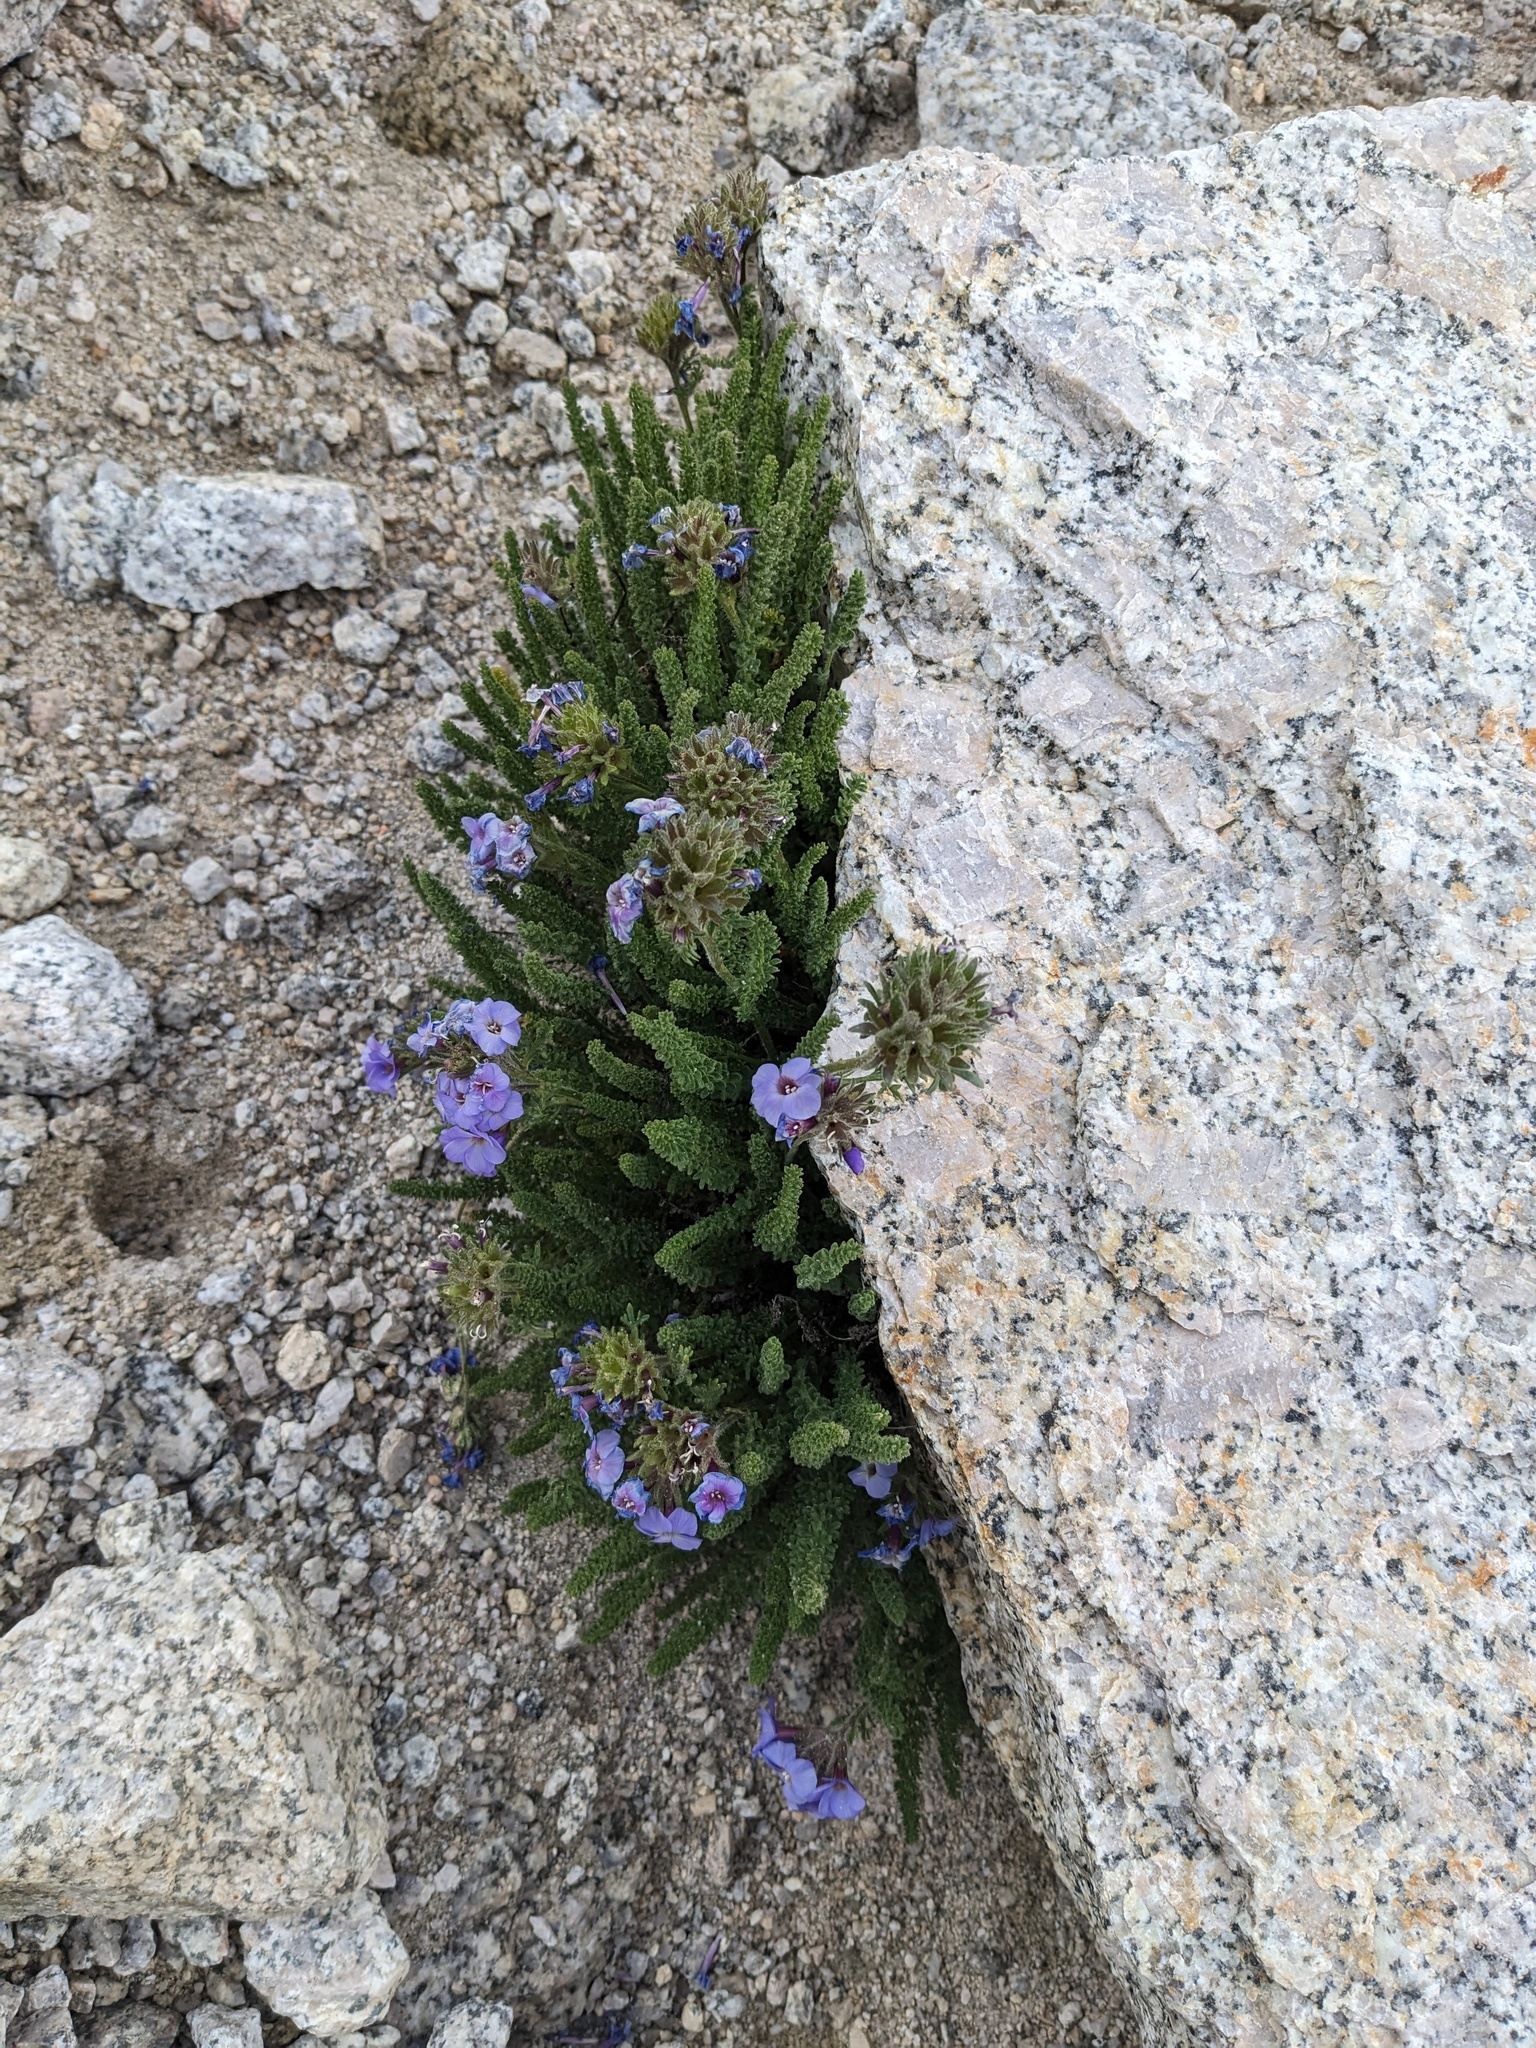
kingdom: Plantae
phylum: Tracheophyta
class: Magnoliopsida
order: Ericales
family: Polemoniaceae
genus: Polemonium
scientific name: Polemonium eximium
